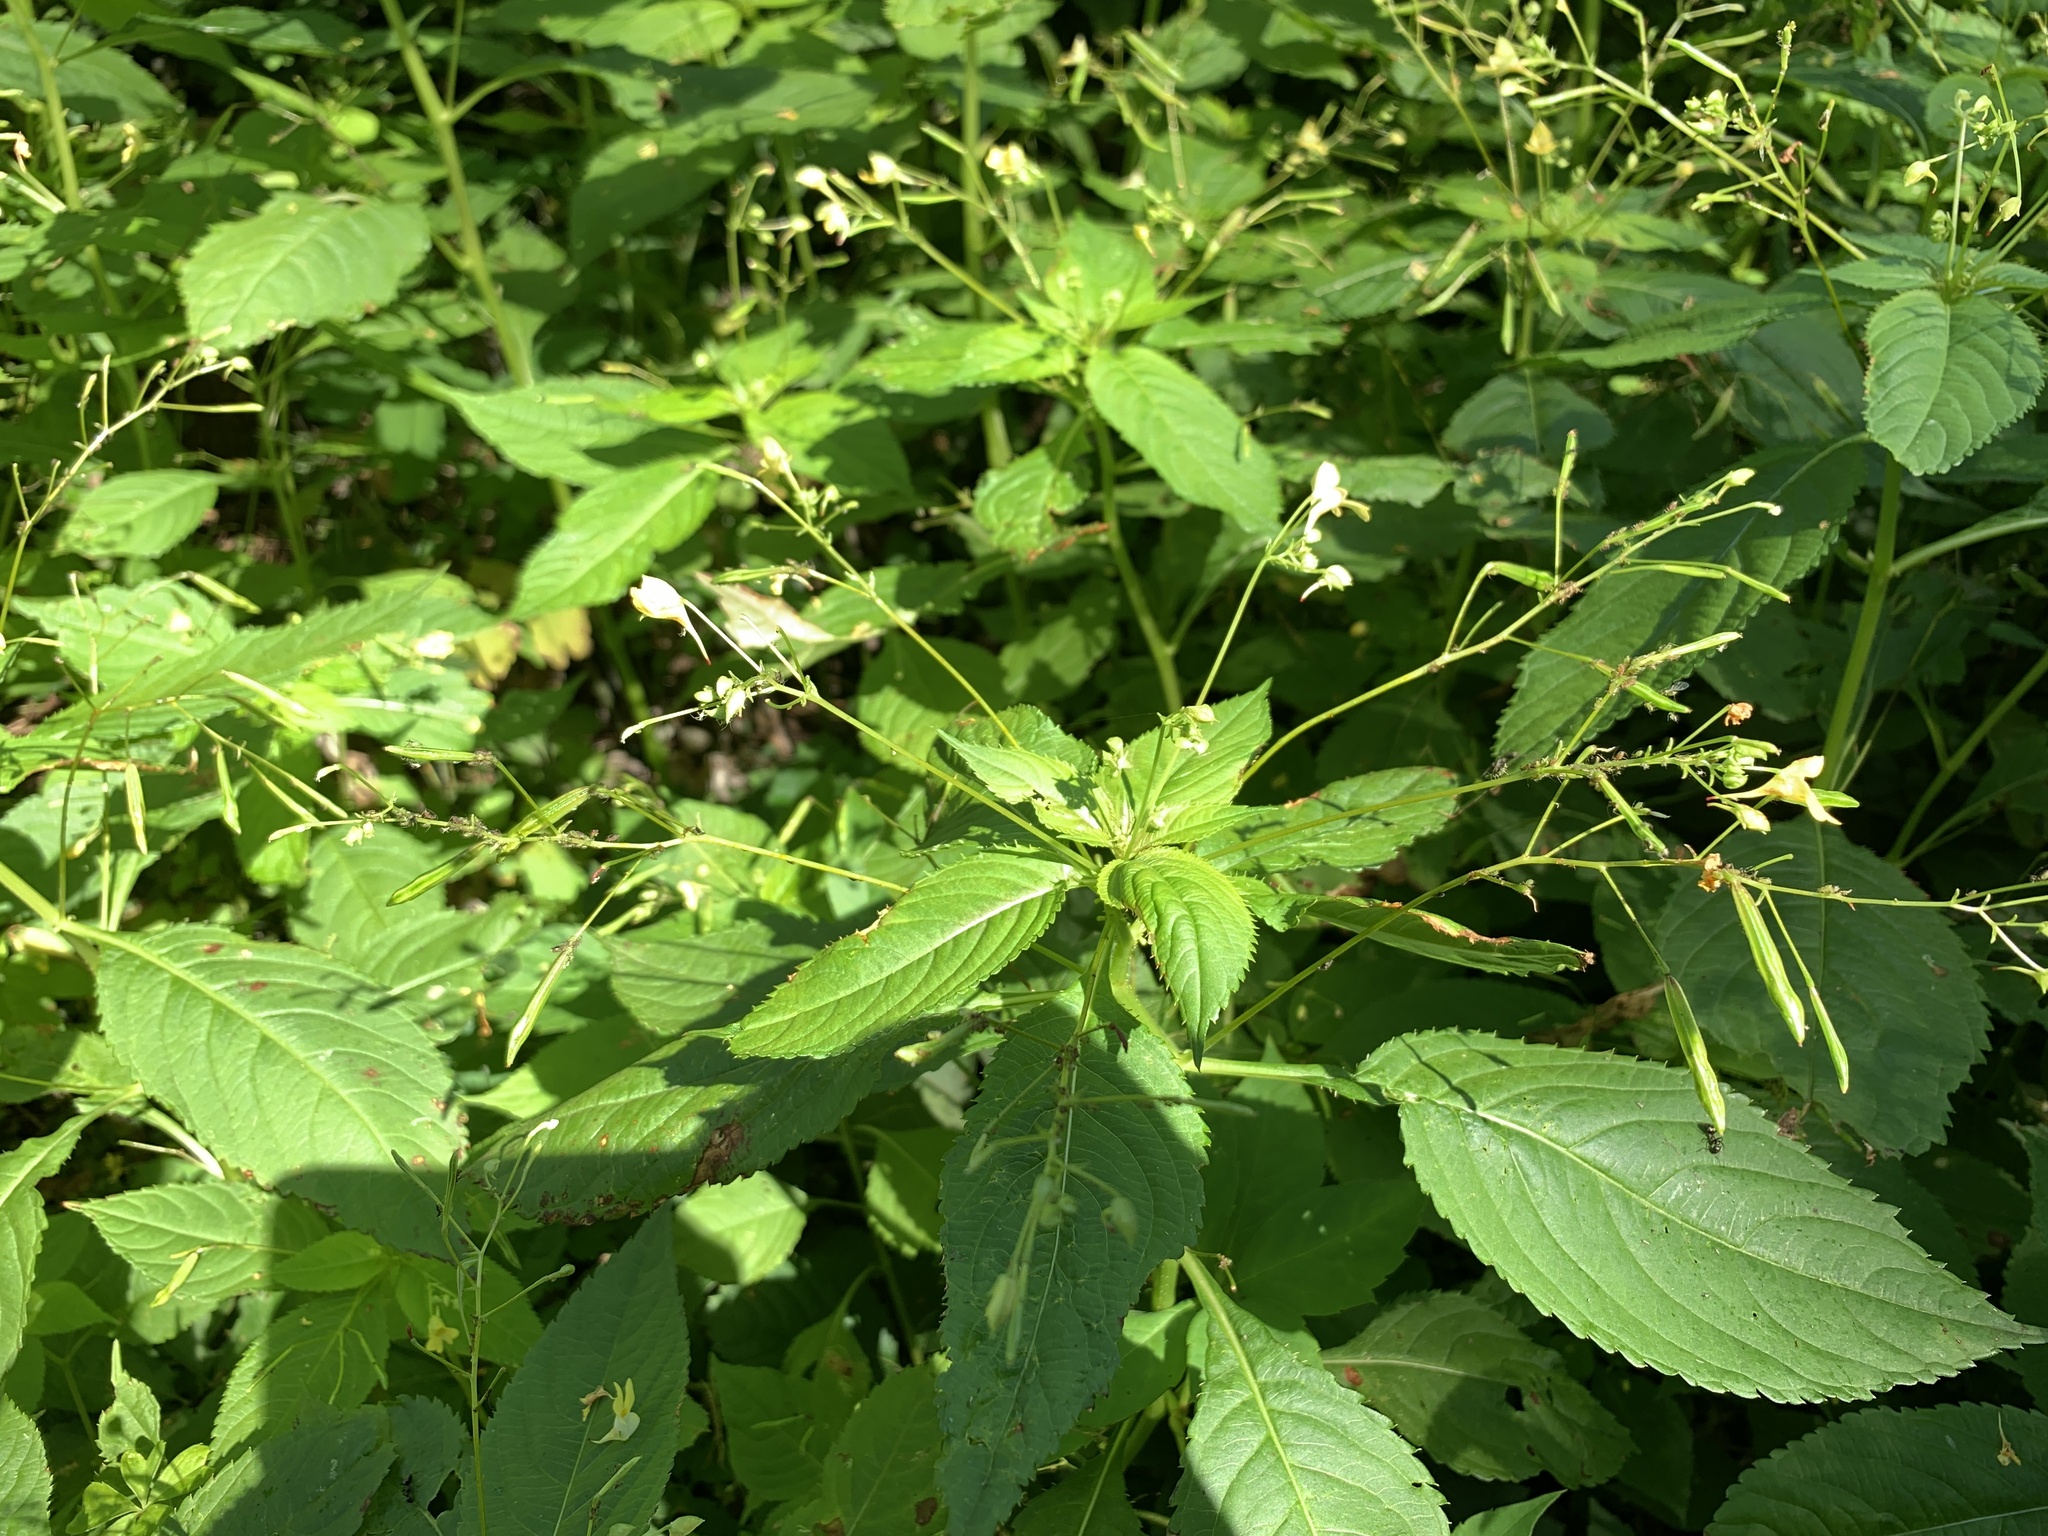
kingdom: Plantae
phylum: Tracheophyta
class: Magnoliopsida
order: Ericales
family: Balsaminaceae
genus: Impatiens
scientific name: Impatiens parviflora
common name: Small balsam
